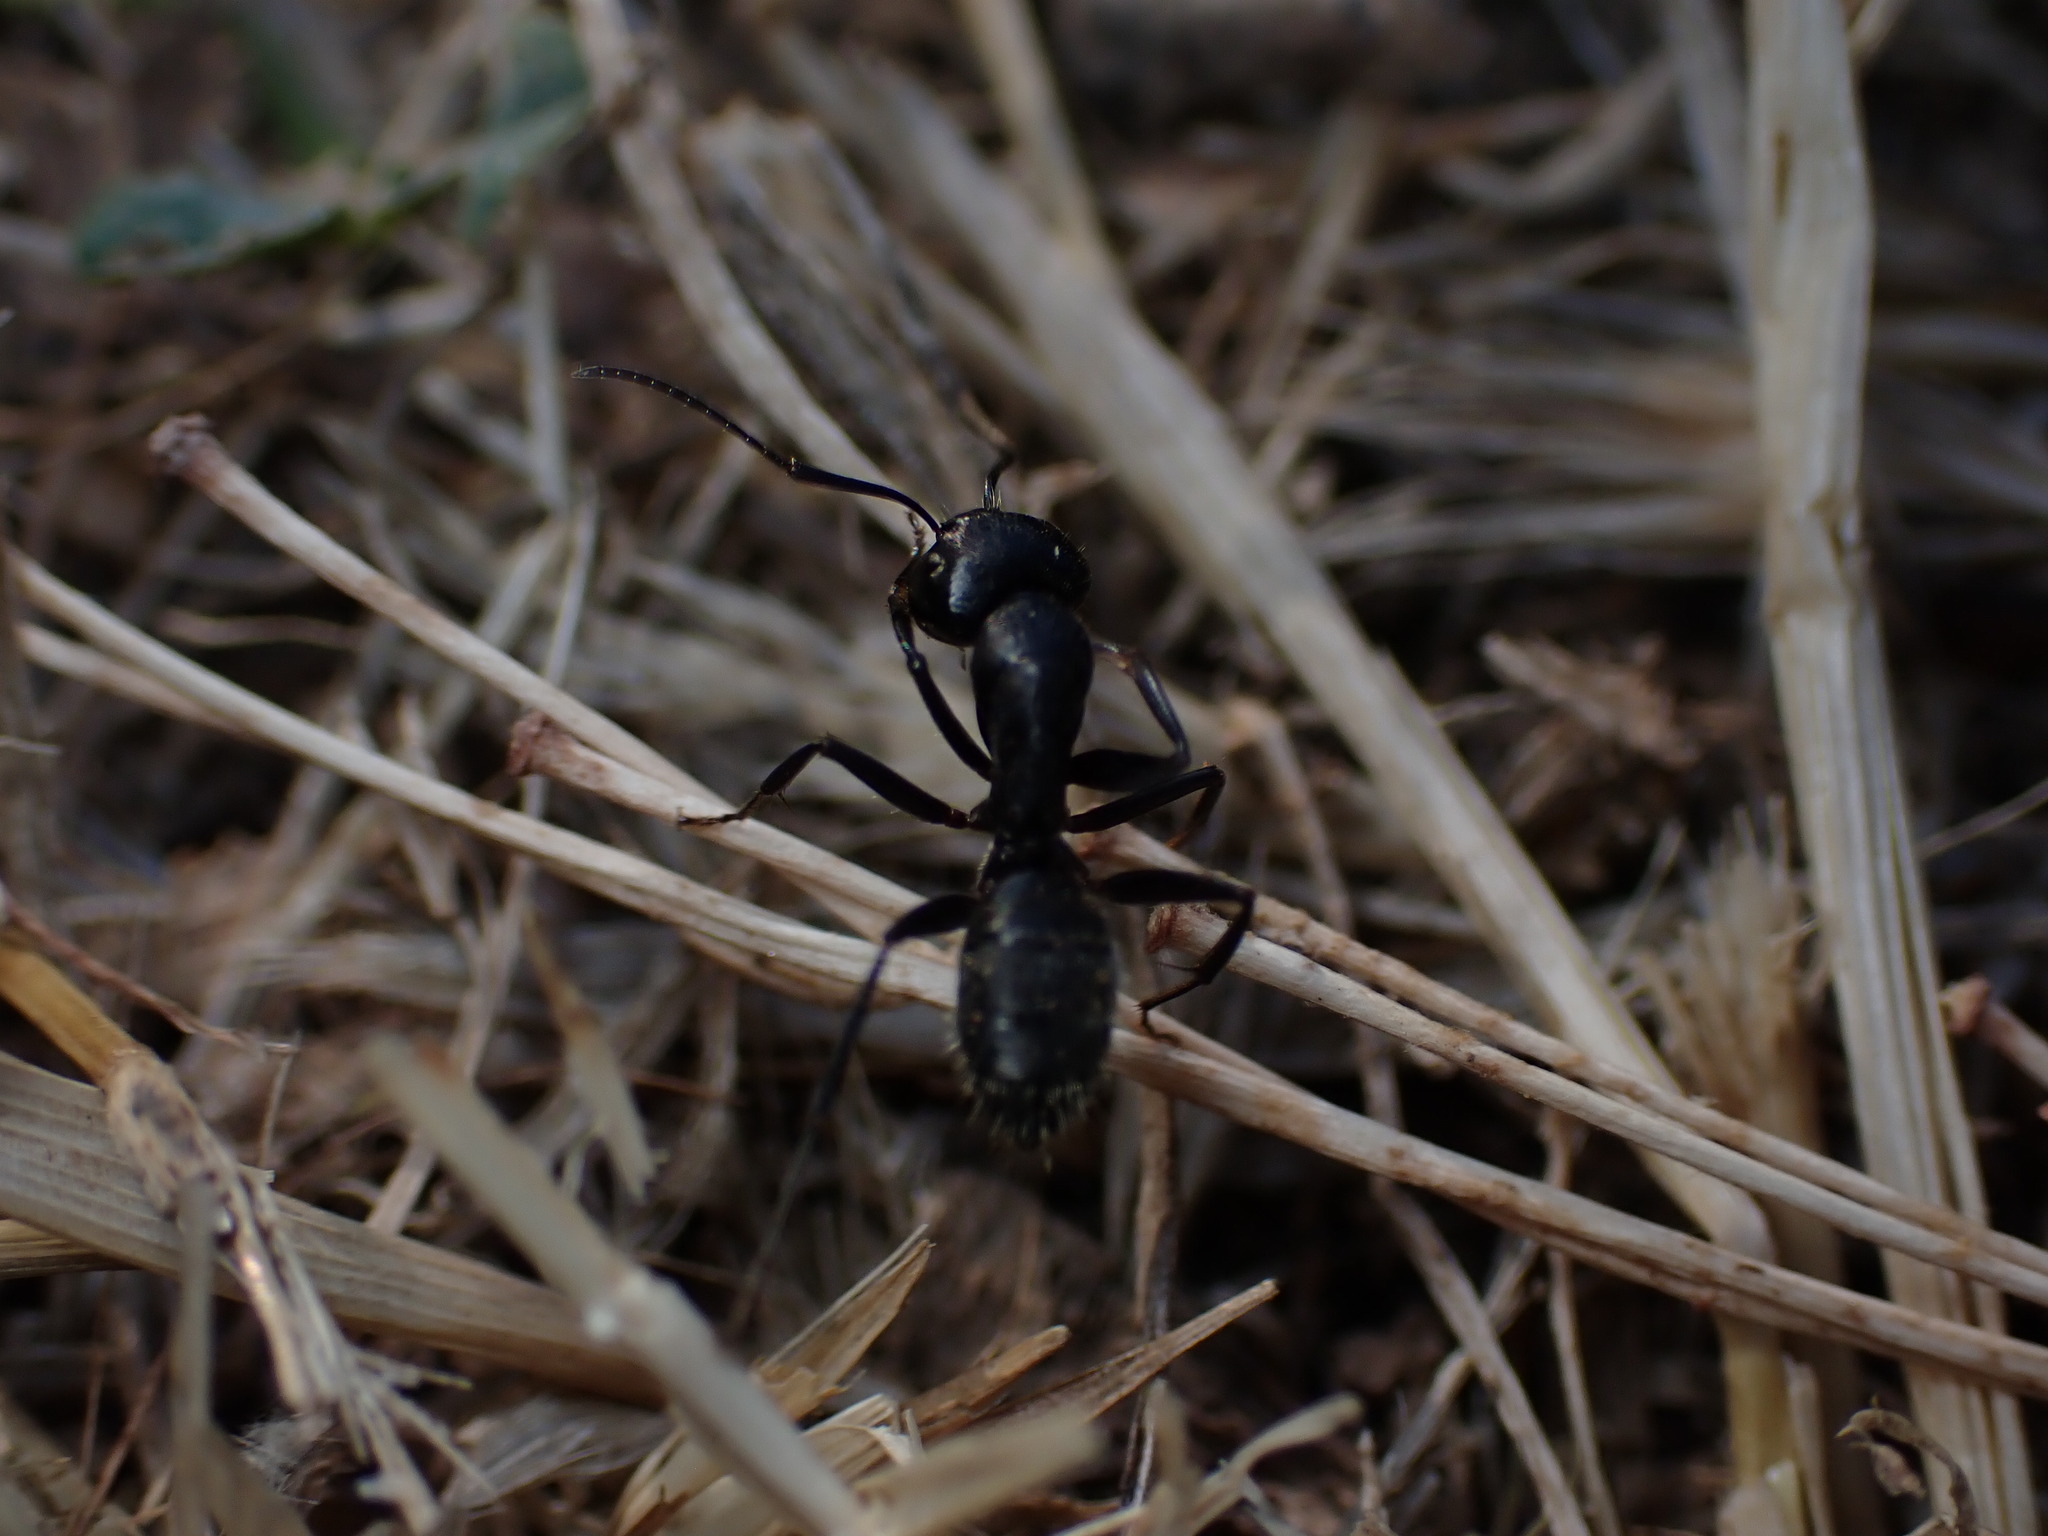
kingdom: Animalia
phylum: Arthropoda
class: Insecta
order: Hymenoptera
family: Formicidae
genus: Camponotus
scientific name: Camponotus vagus
